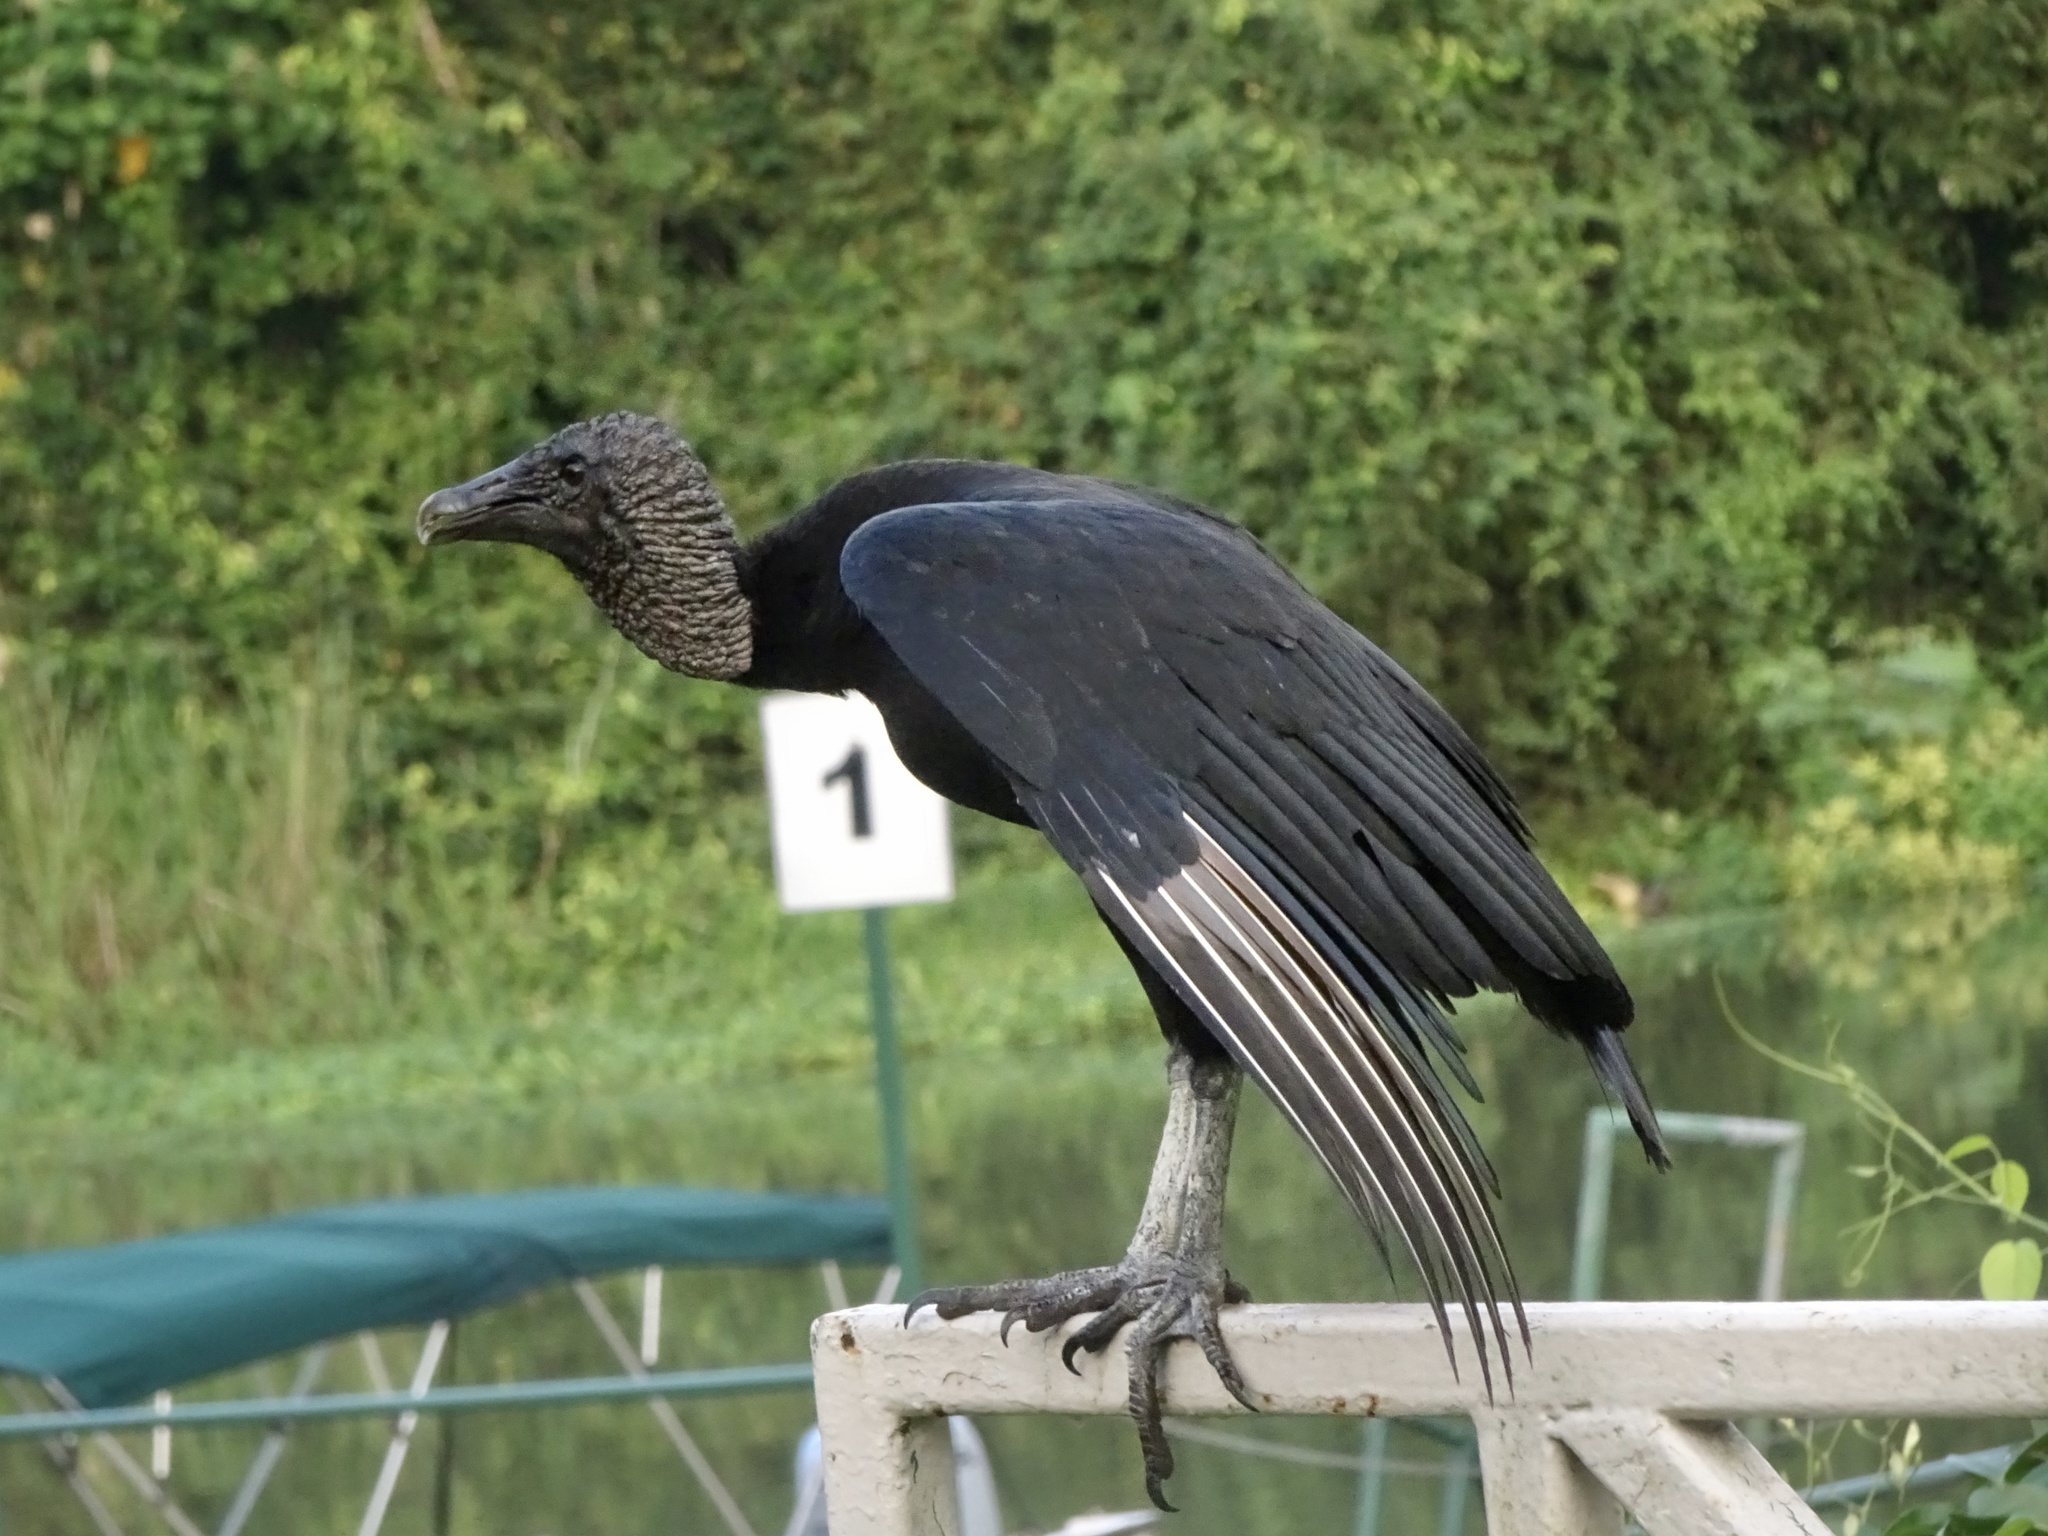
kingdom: Animalia
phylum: Chordata
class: Aves
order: Accipitriformes
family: Cathartidae
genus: Coragyps
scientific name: Coragyps atratus
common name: Black vulture
